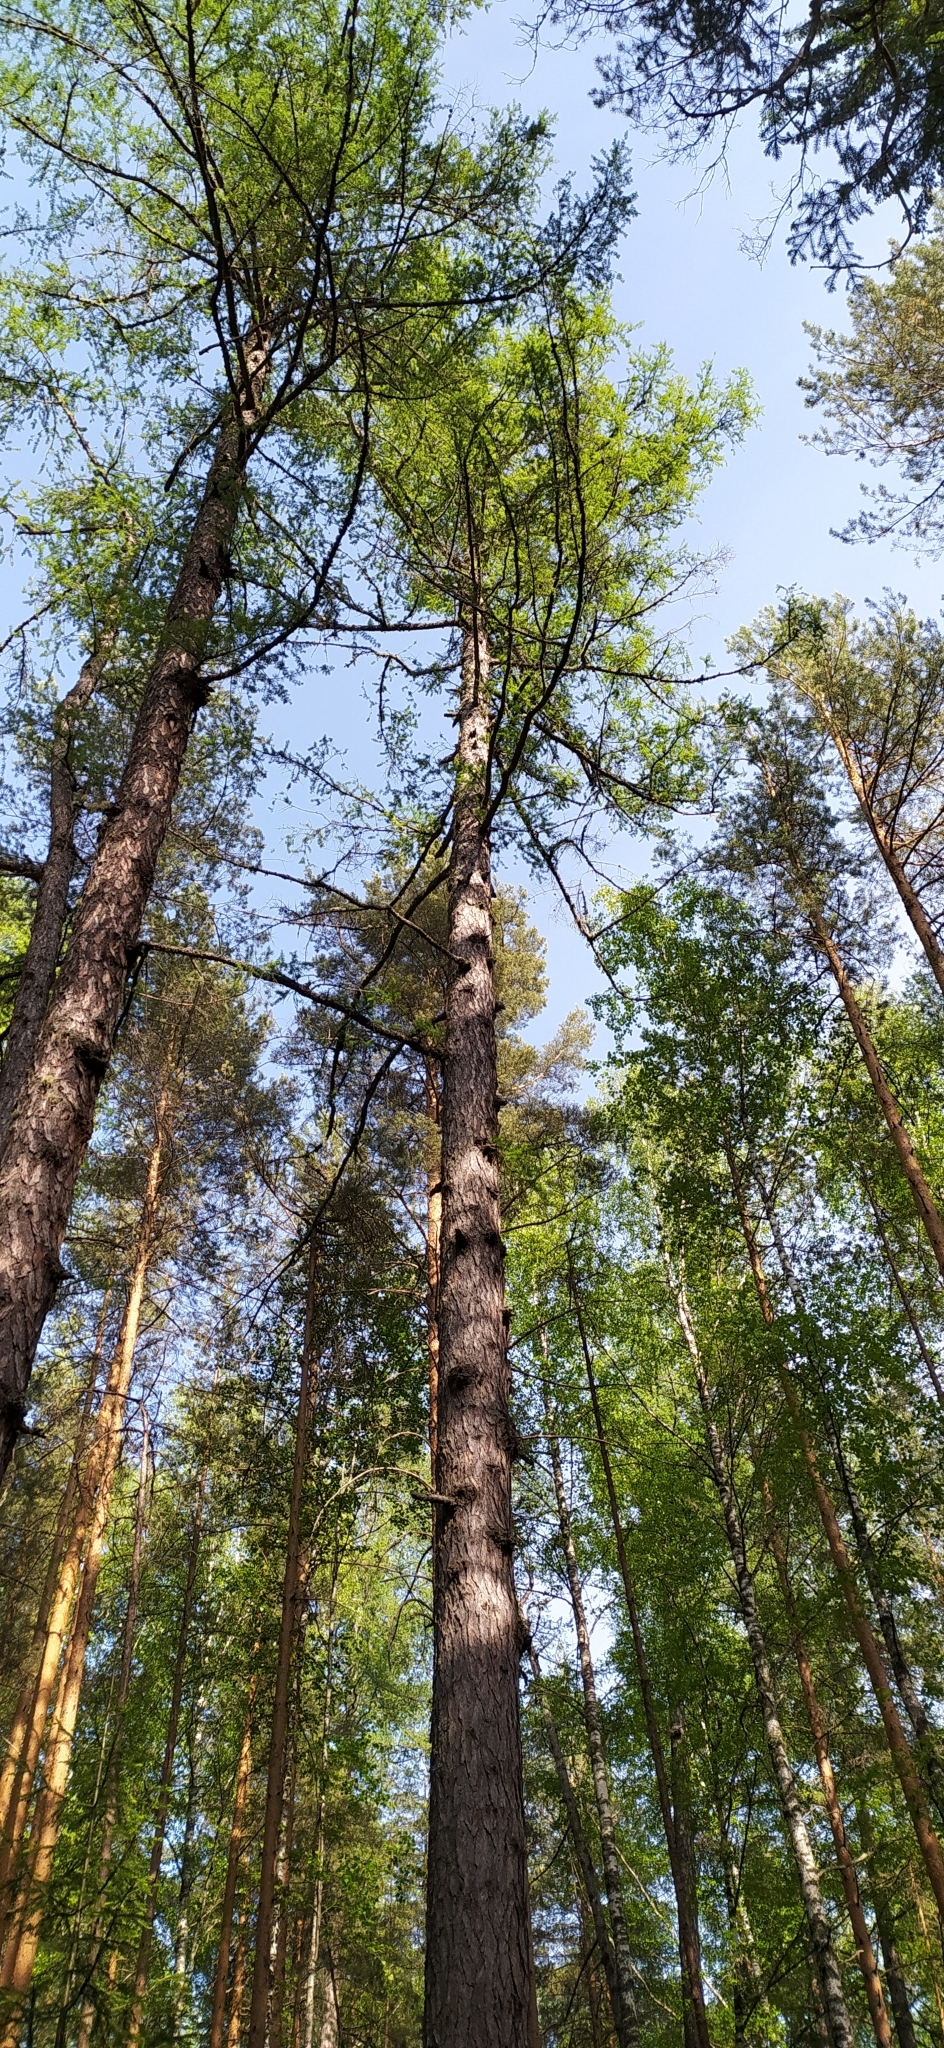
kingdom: Plantae
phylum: Tracheophyta
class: Pinopsida
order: Pinales
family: Pinaceae
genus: Larix
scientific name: Larix sibirica
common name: Siberian larch
